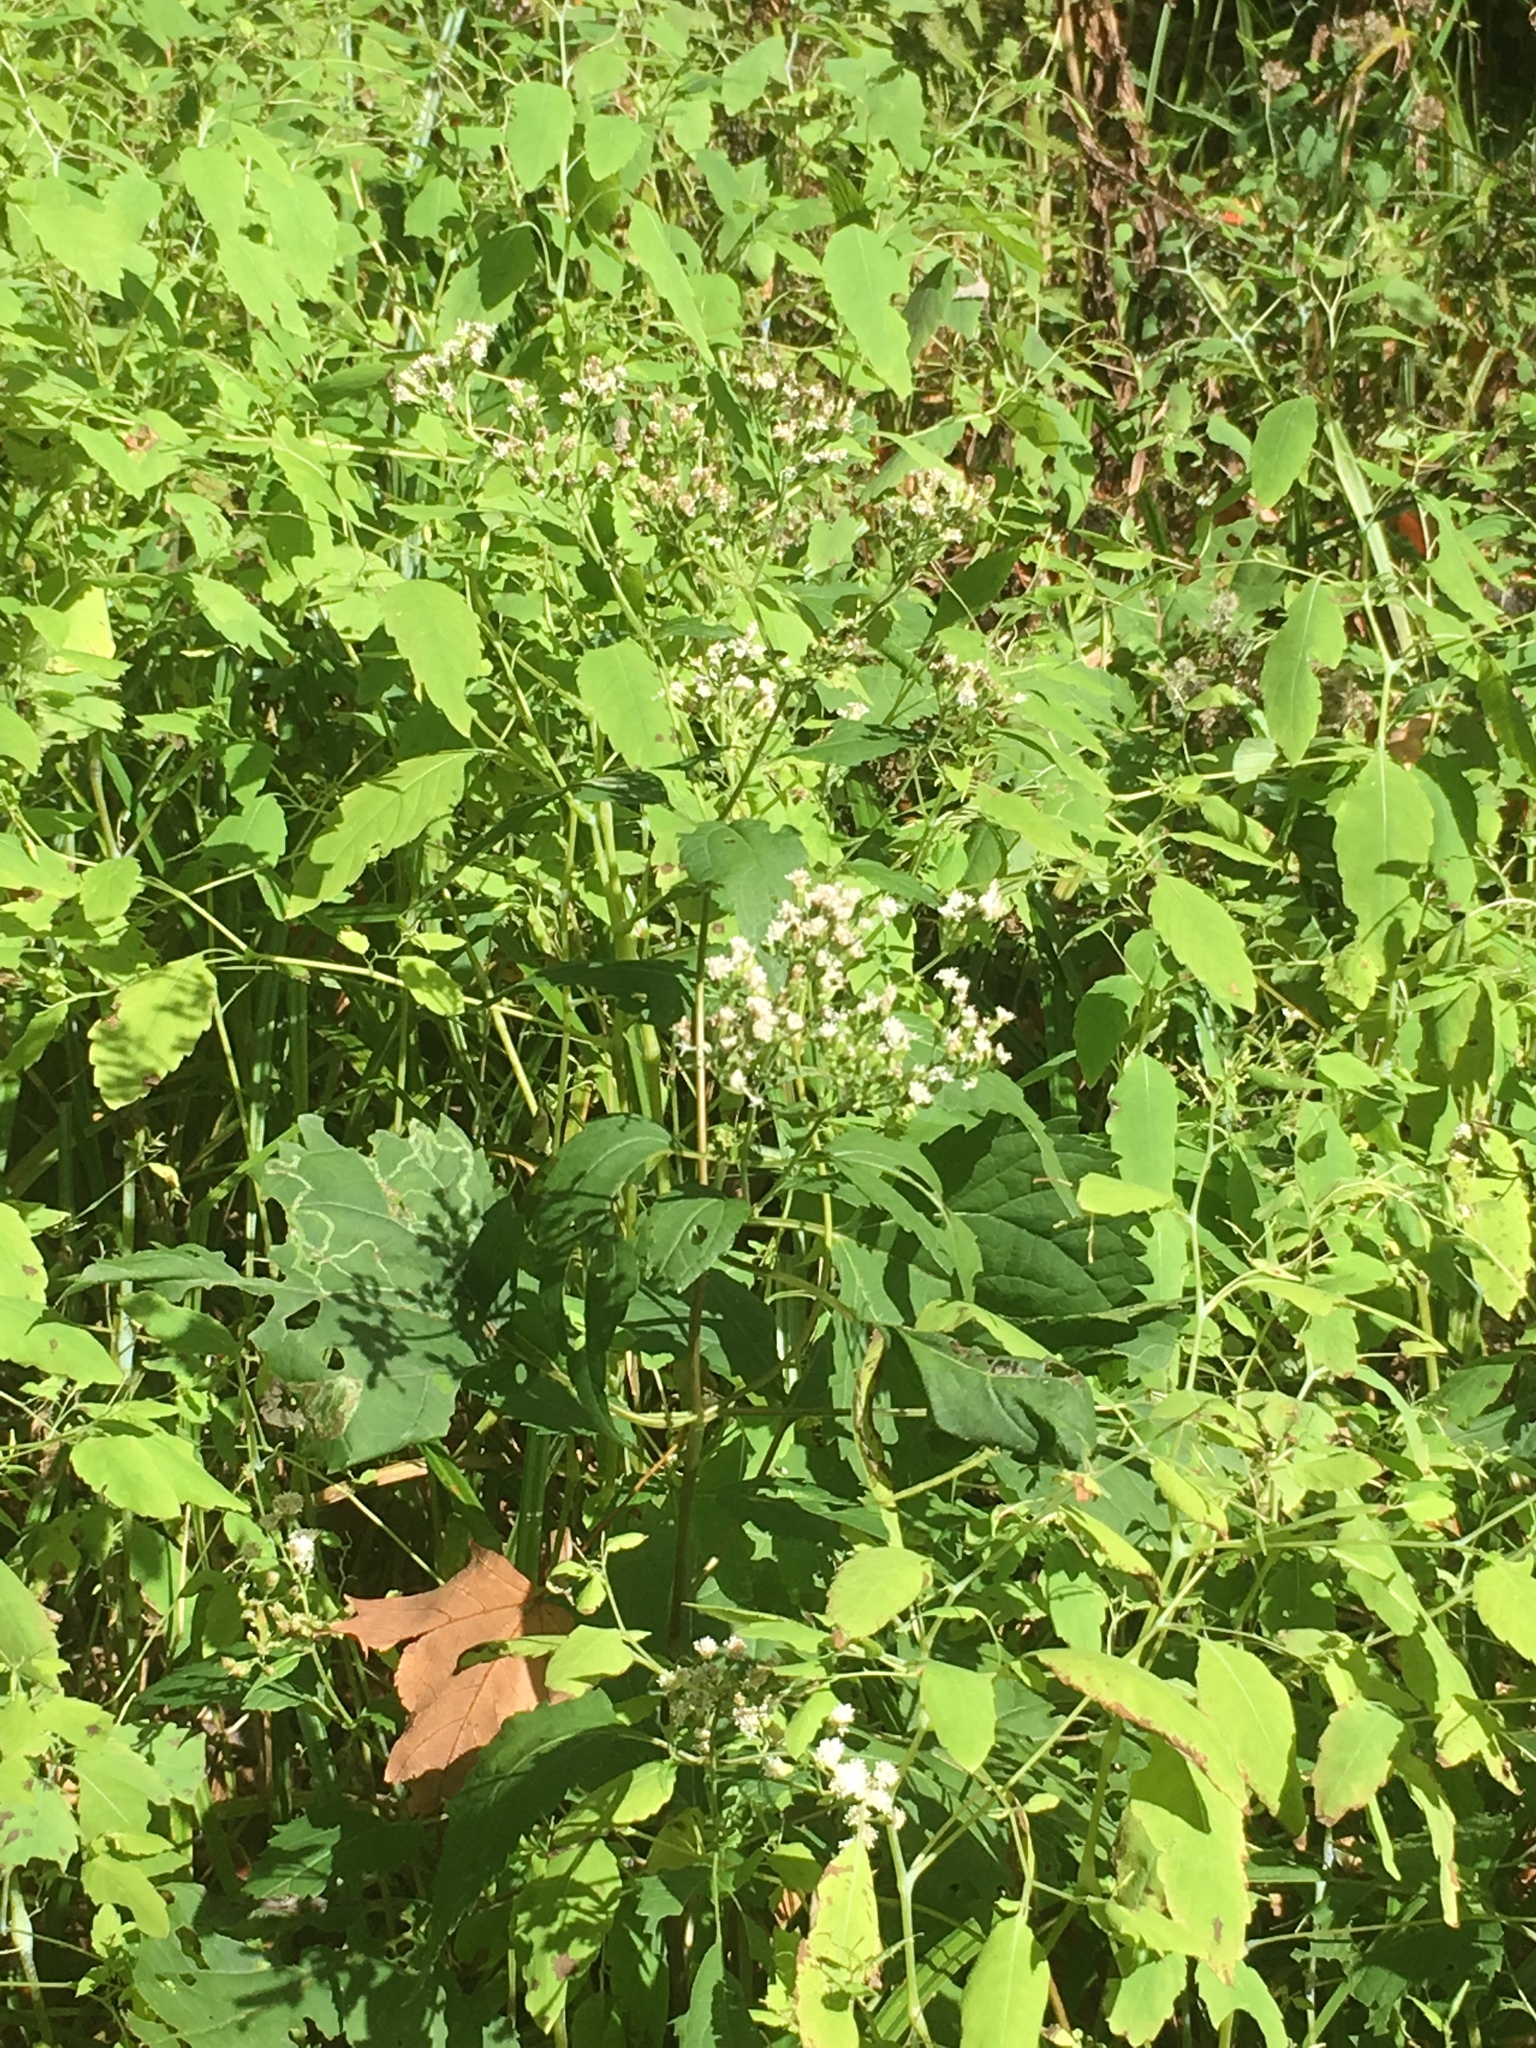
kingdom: Plantae
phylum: Tracheophyta
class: Magnoliopsida
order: Asterales
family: Asteraceae
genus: Ageratina
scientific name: Ageratina altissima
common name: White snakeroot
